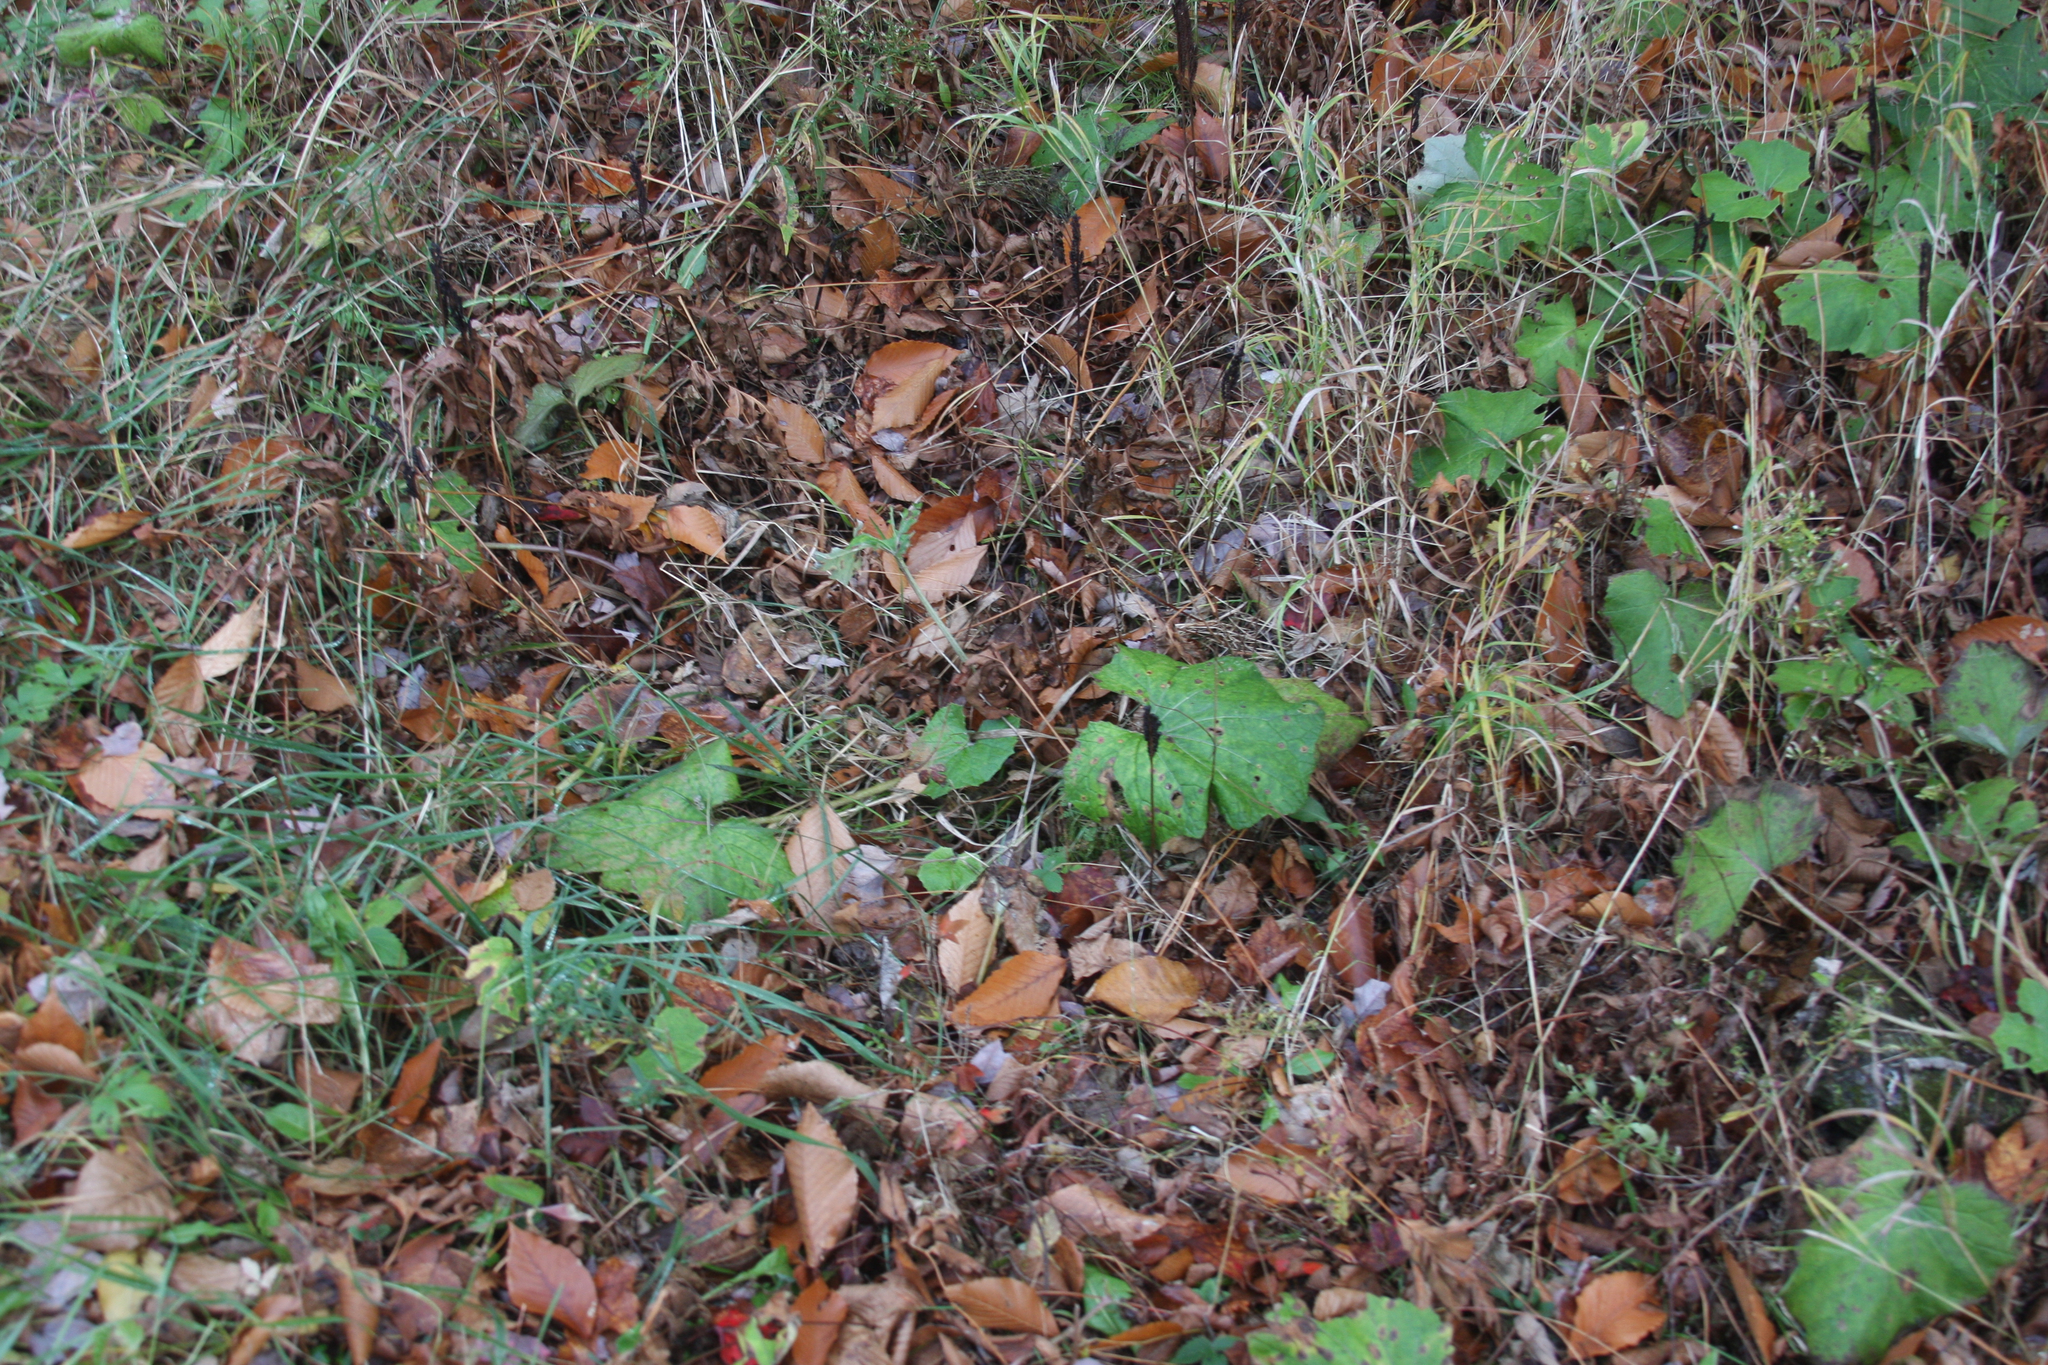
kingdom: Plantae
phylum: Tracheophyta
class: Magnoliopsida
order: Asterales
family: Asteraceae
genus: Tussilago
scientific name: Tussilago farfara
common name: Coltsfoot
